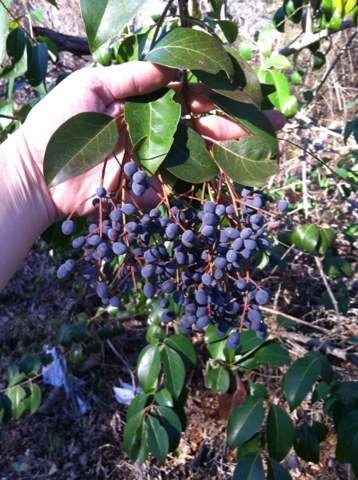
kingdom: Plantae
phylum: Tracheophyta
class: Magnoliopsida
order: Lamiales
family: Oleaceae
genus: Ligustrum
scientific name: Ligustrum lucidum
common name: Glossy privet
